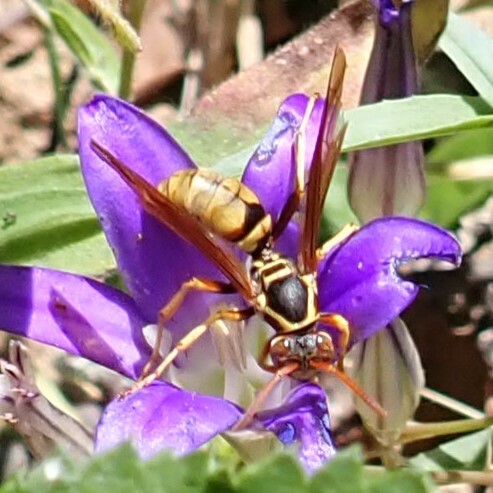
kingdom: Animalia
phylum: Arthropoda
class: Insecta
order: Hymenoptera
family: Eumenidae
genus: Polistes
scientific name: Polistes aurifer
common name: Paper wasp
